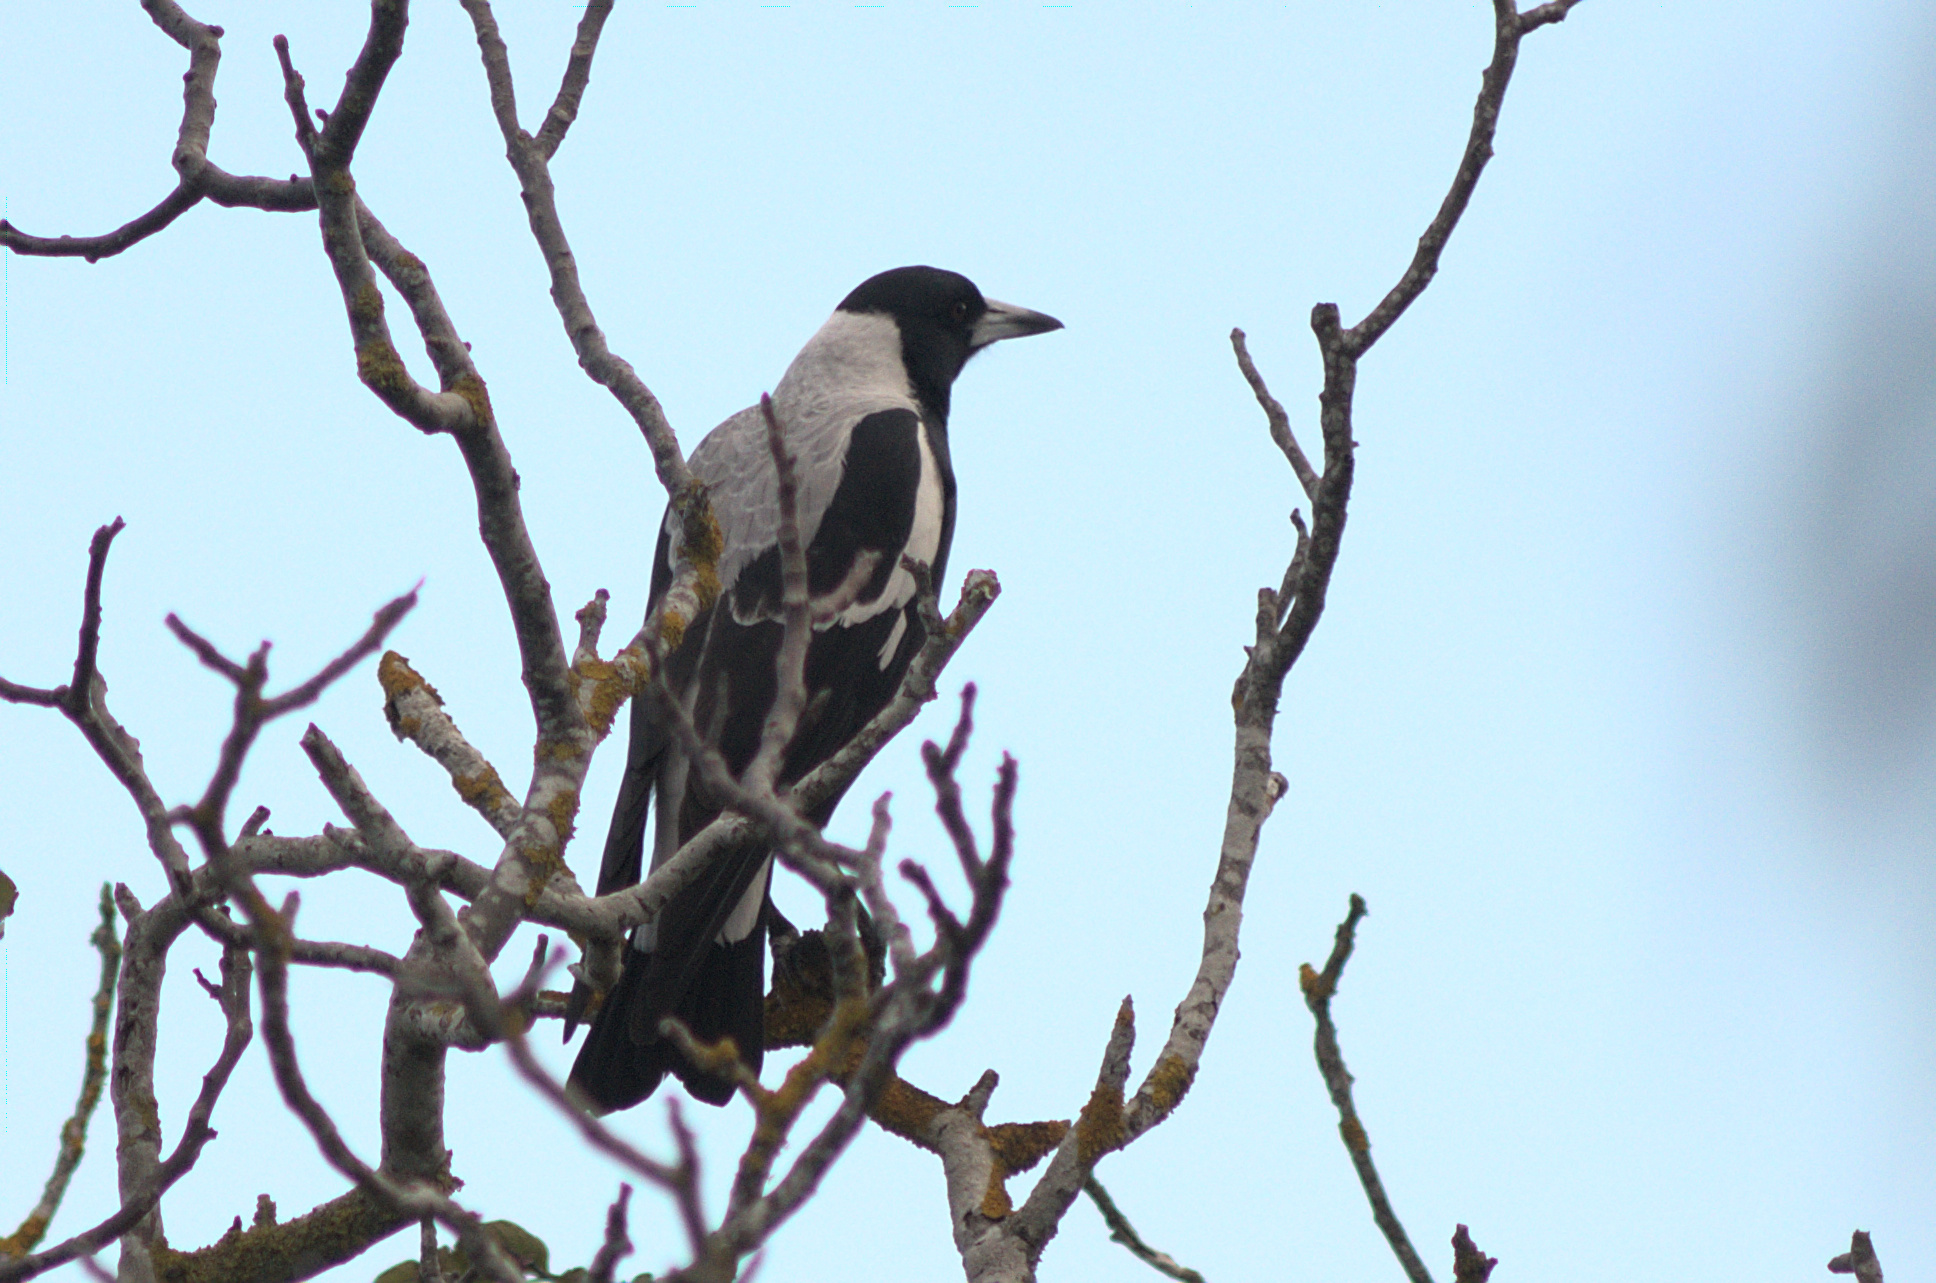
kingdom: Animalia
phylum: Chordata
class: Aves
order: Passeriformes
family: Cracticidae
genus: Gymnorhina
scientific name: Gymnorhina tibicen
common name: Australian magpie
